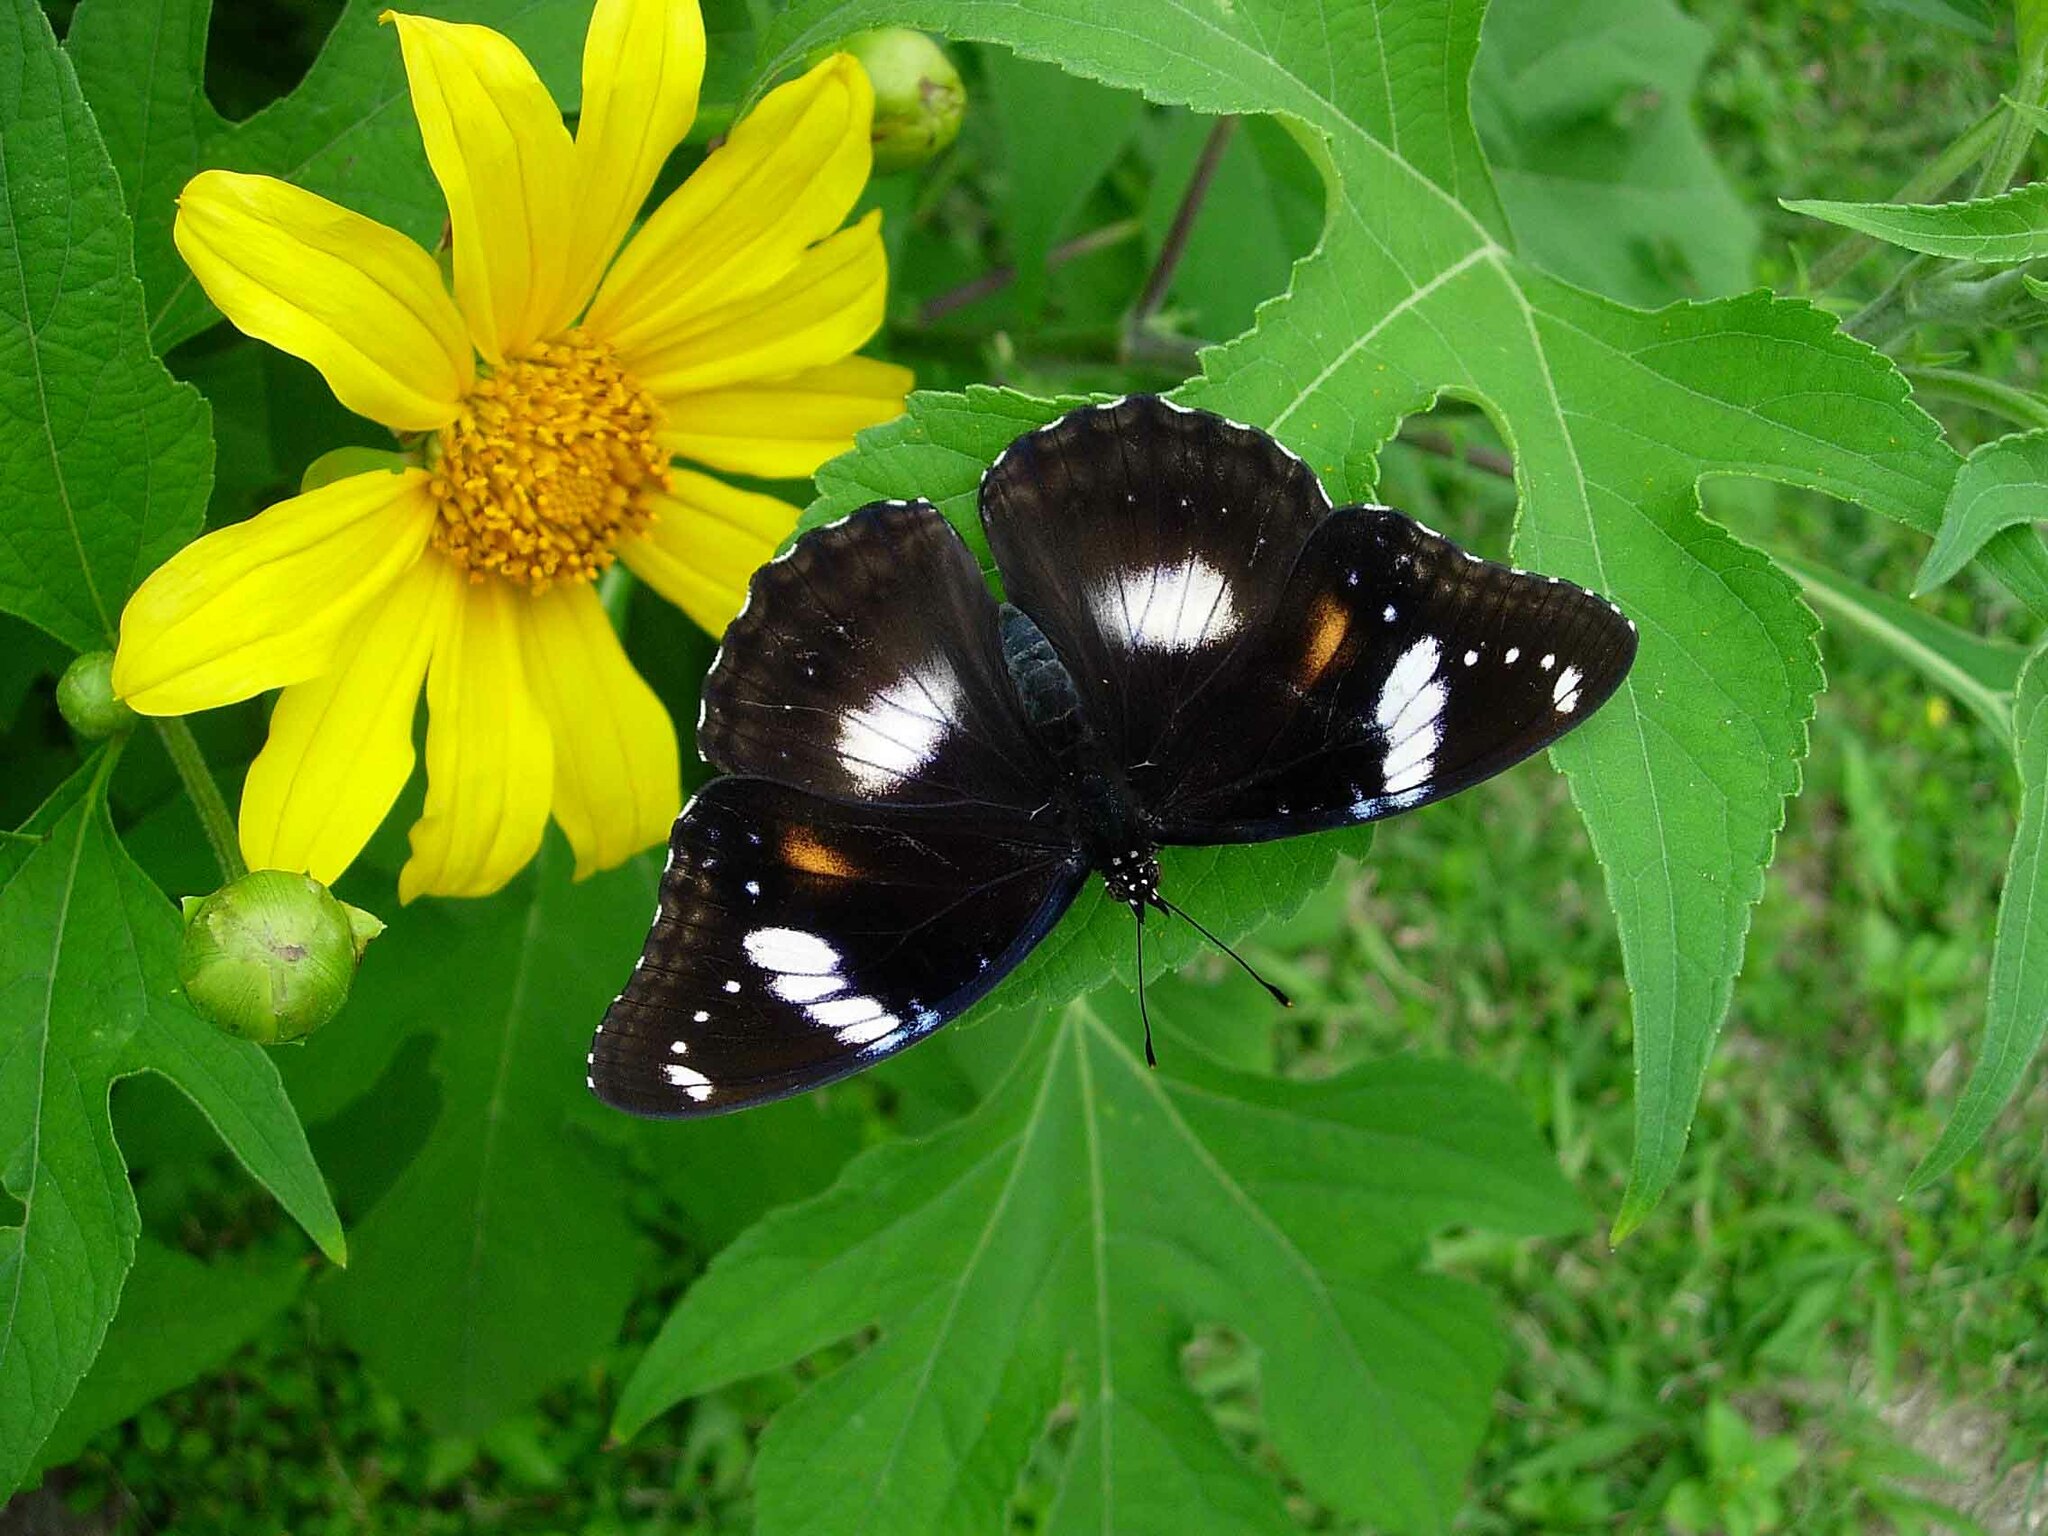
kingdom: Animalia
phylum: Arthropoda
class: Insecta
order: Lepidoptera
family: Nymphalidae
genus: Hypolimnas
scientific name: Hypolimnas bolina
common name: Great eggfly
